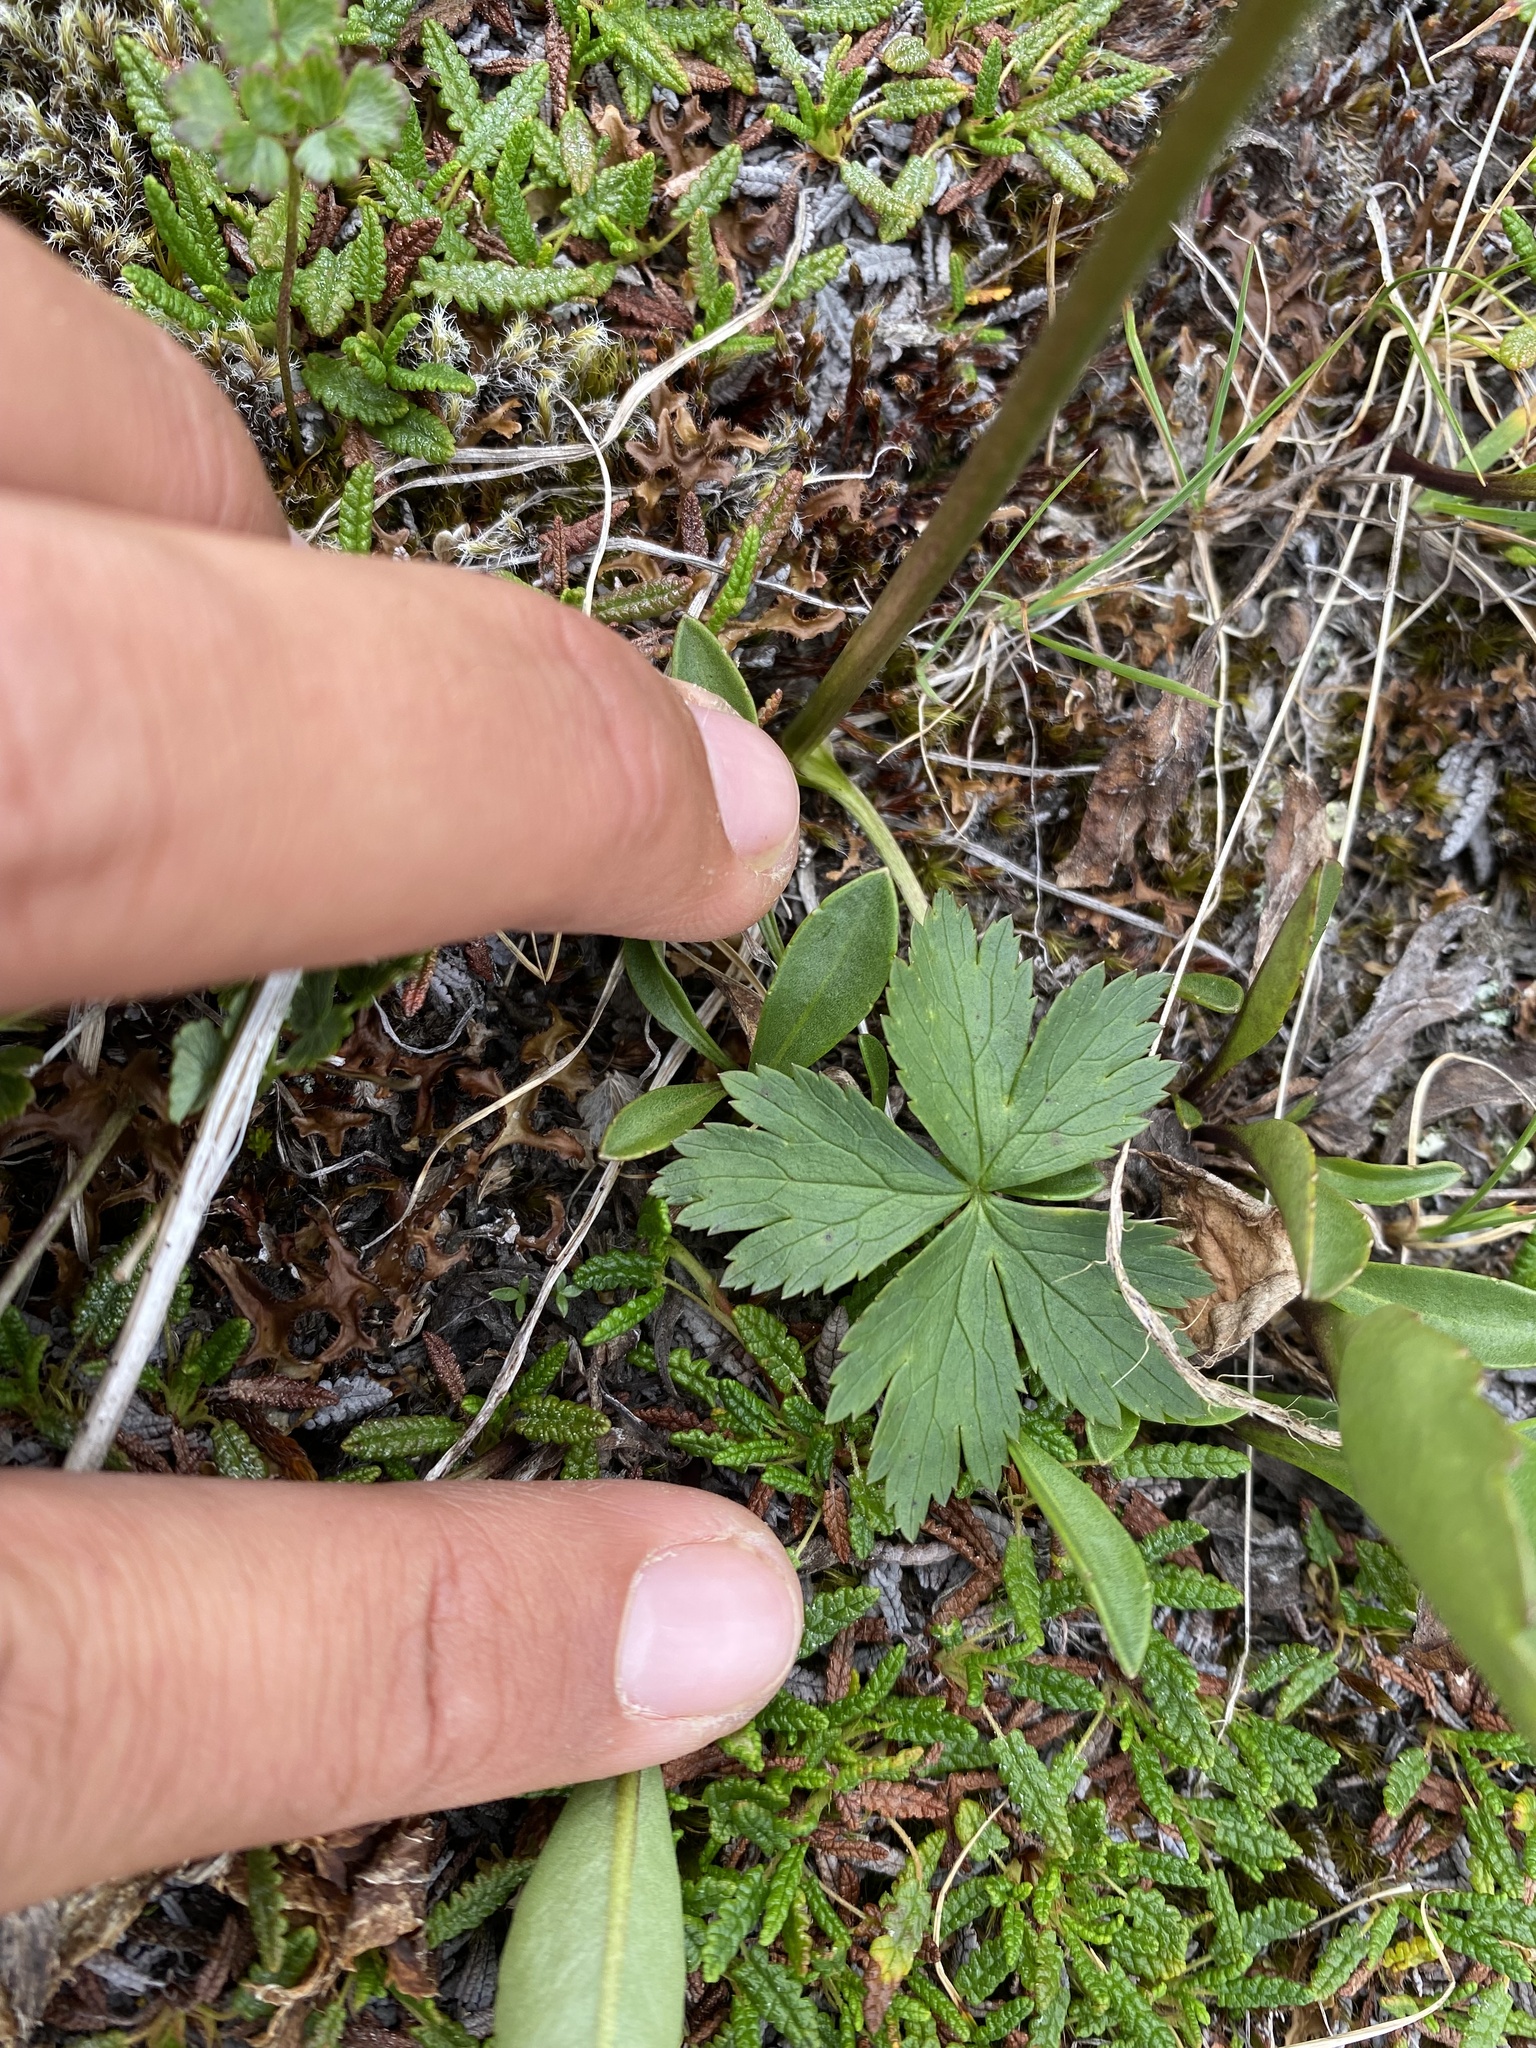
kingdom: Plantae
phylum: Tracheophyta
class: Magnoliopsida
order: Ranunculales
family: Ranunculaceae
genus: Trollius
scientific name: Trollius sibiricus
